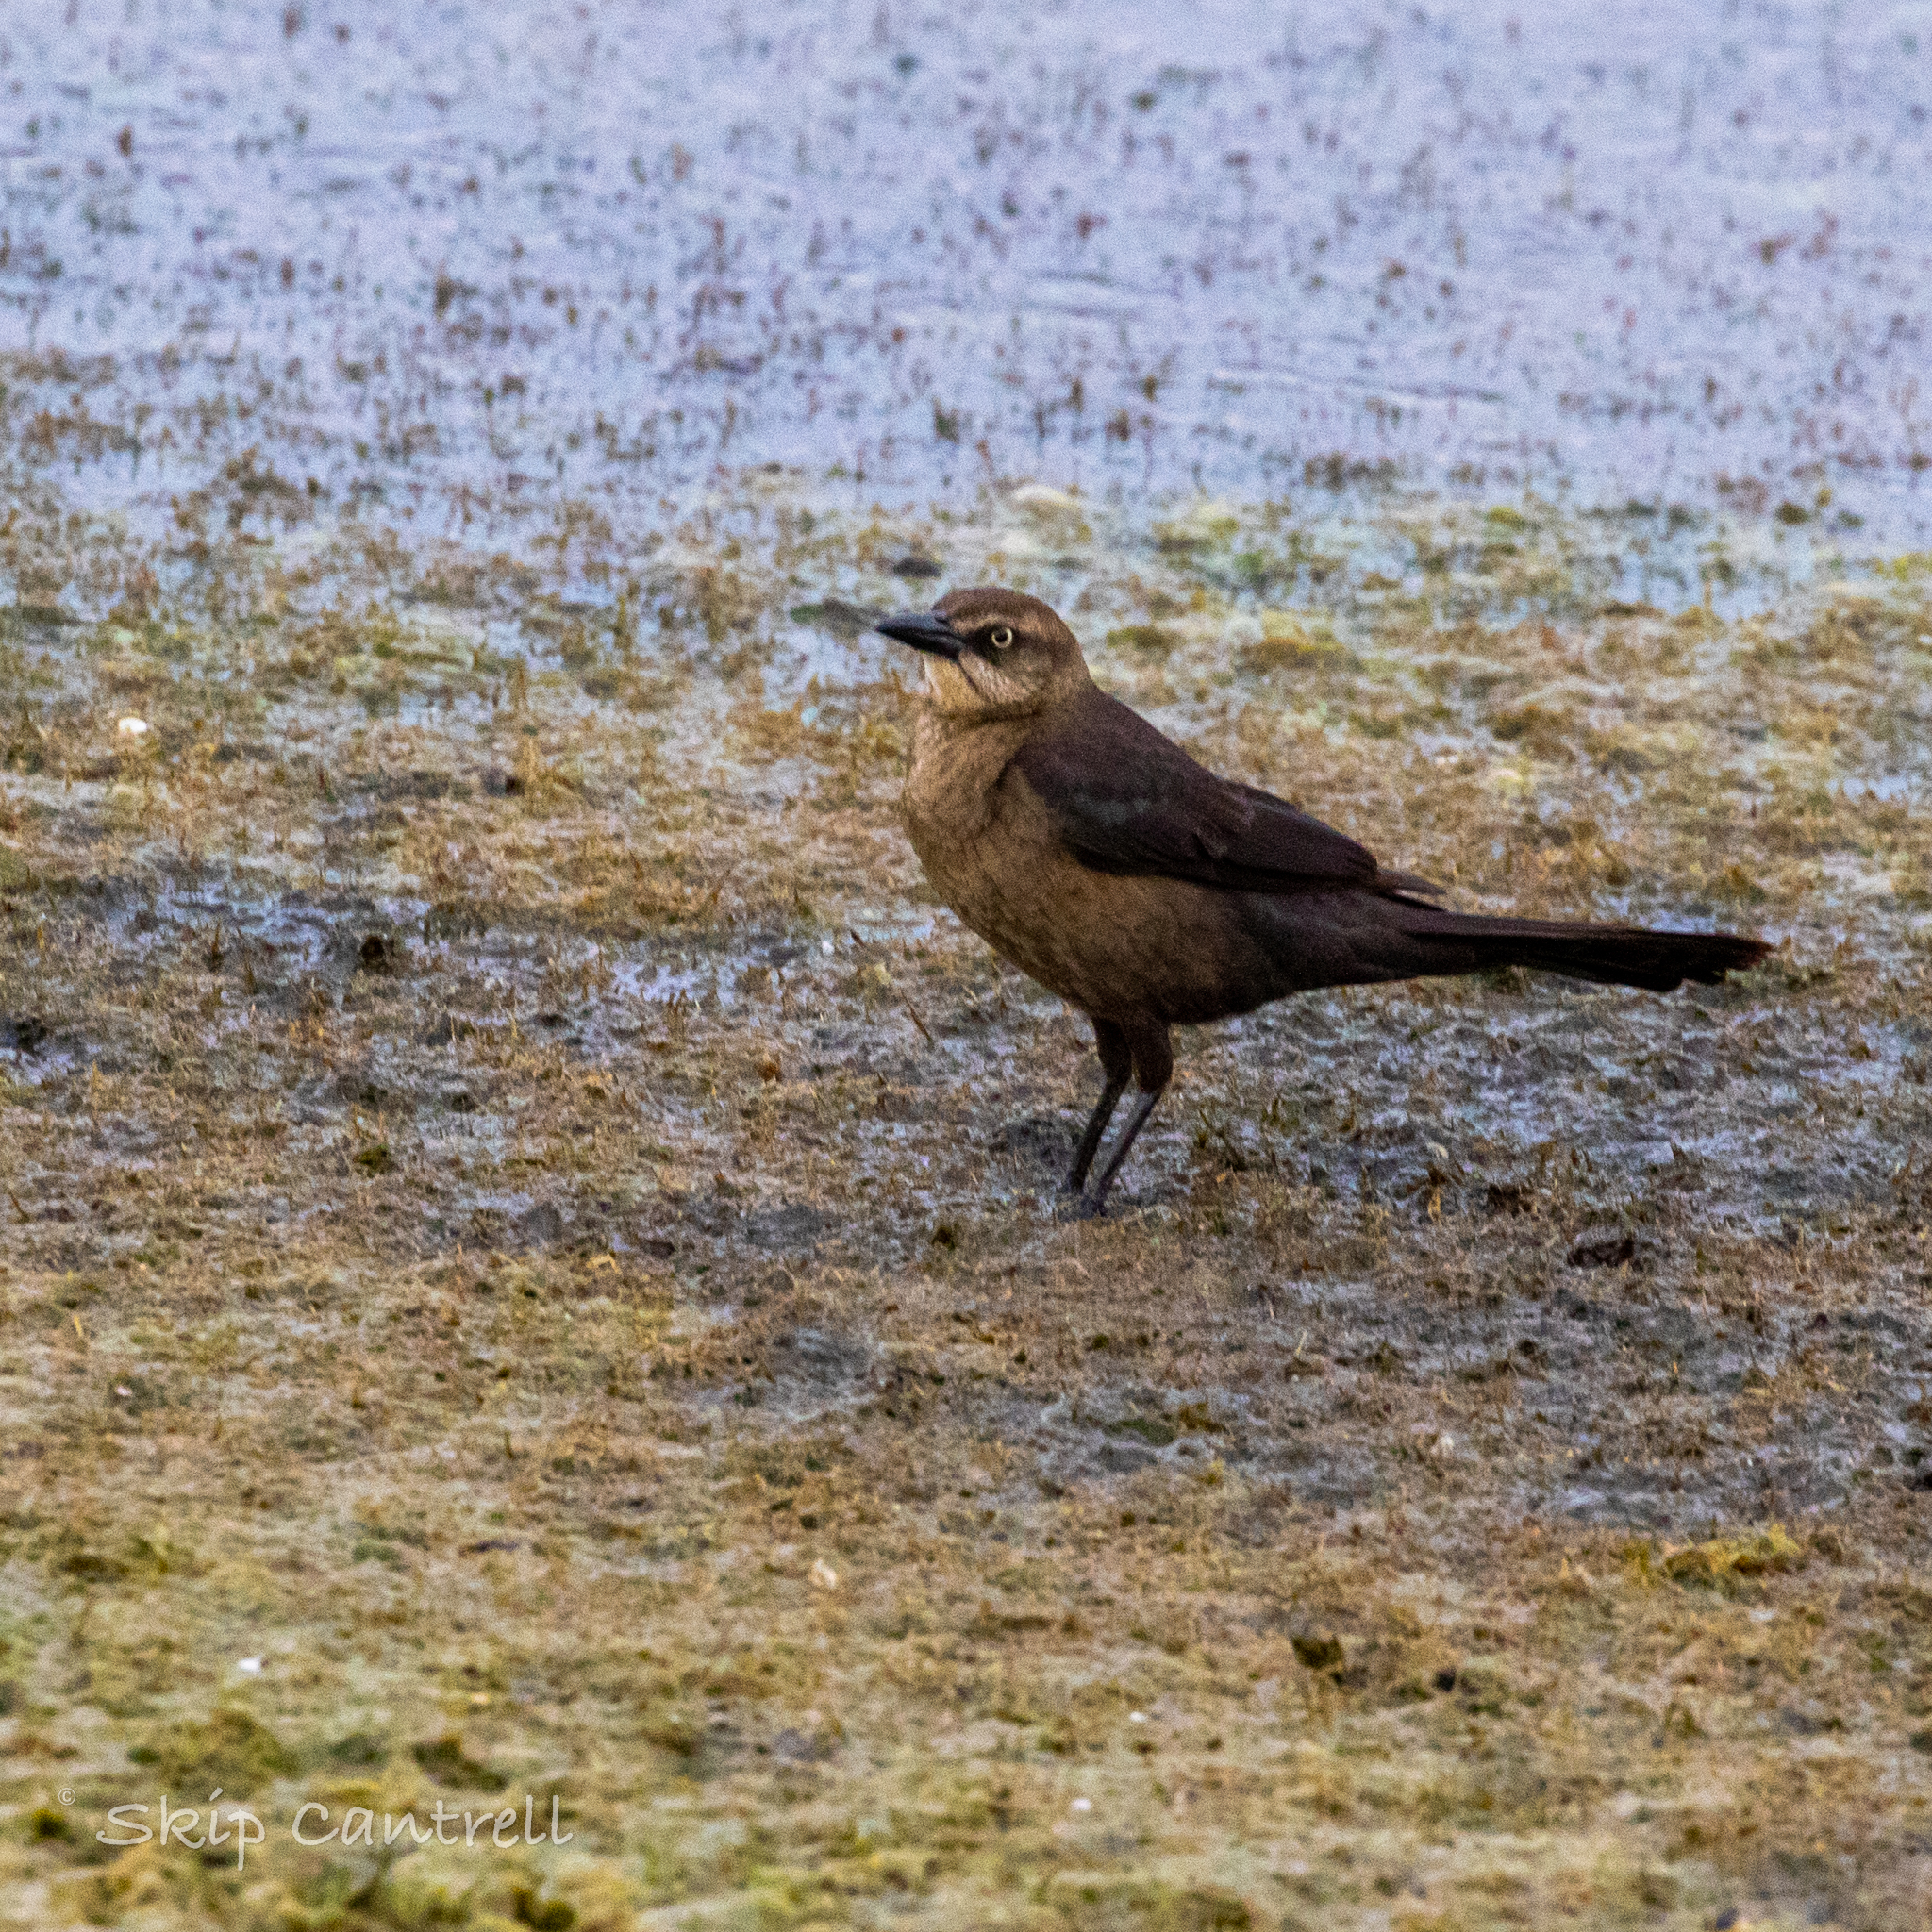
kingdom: Animalia
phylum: Chordata
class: Aves
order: Passeriformes
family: Icteridae
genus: Quiscalus
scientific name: Quiscalus mexicanus
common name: Great-tailed grackle
